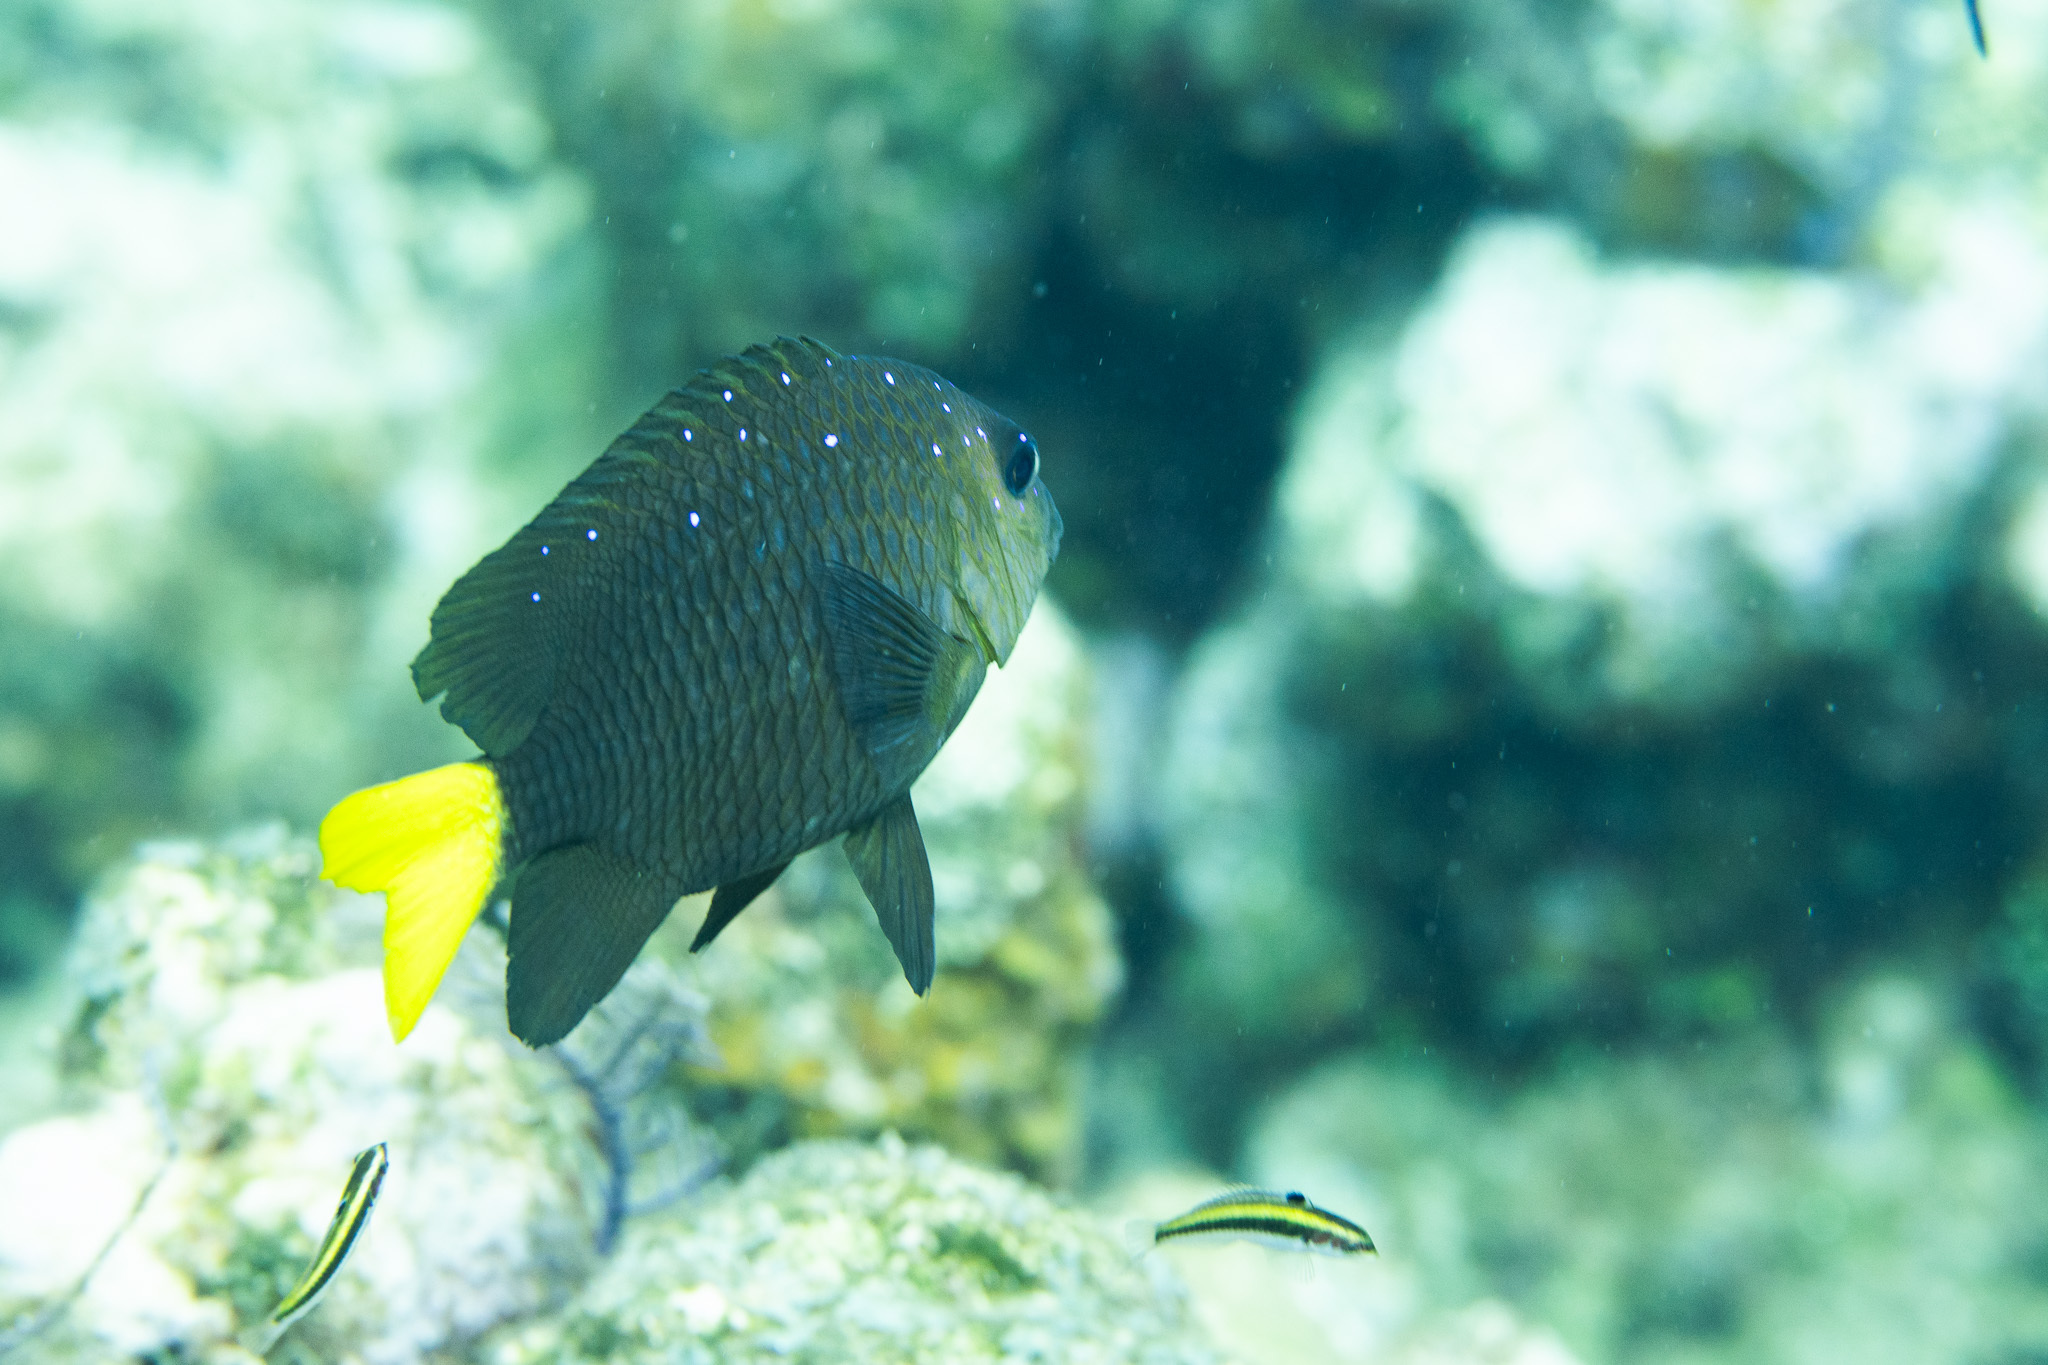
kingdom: Animalia
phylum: Chordata
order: Perciformes
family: Pomacentridae
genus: Microspathodon
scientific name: Microspathodon chrysurus
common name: Yellowtail damselfish
